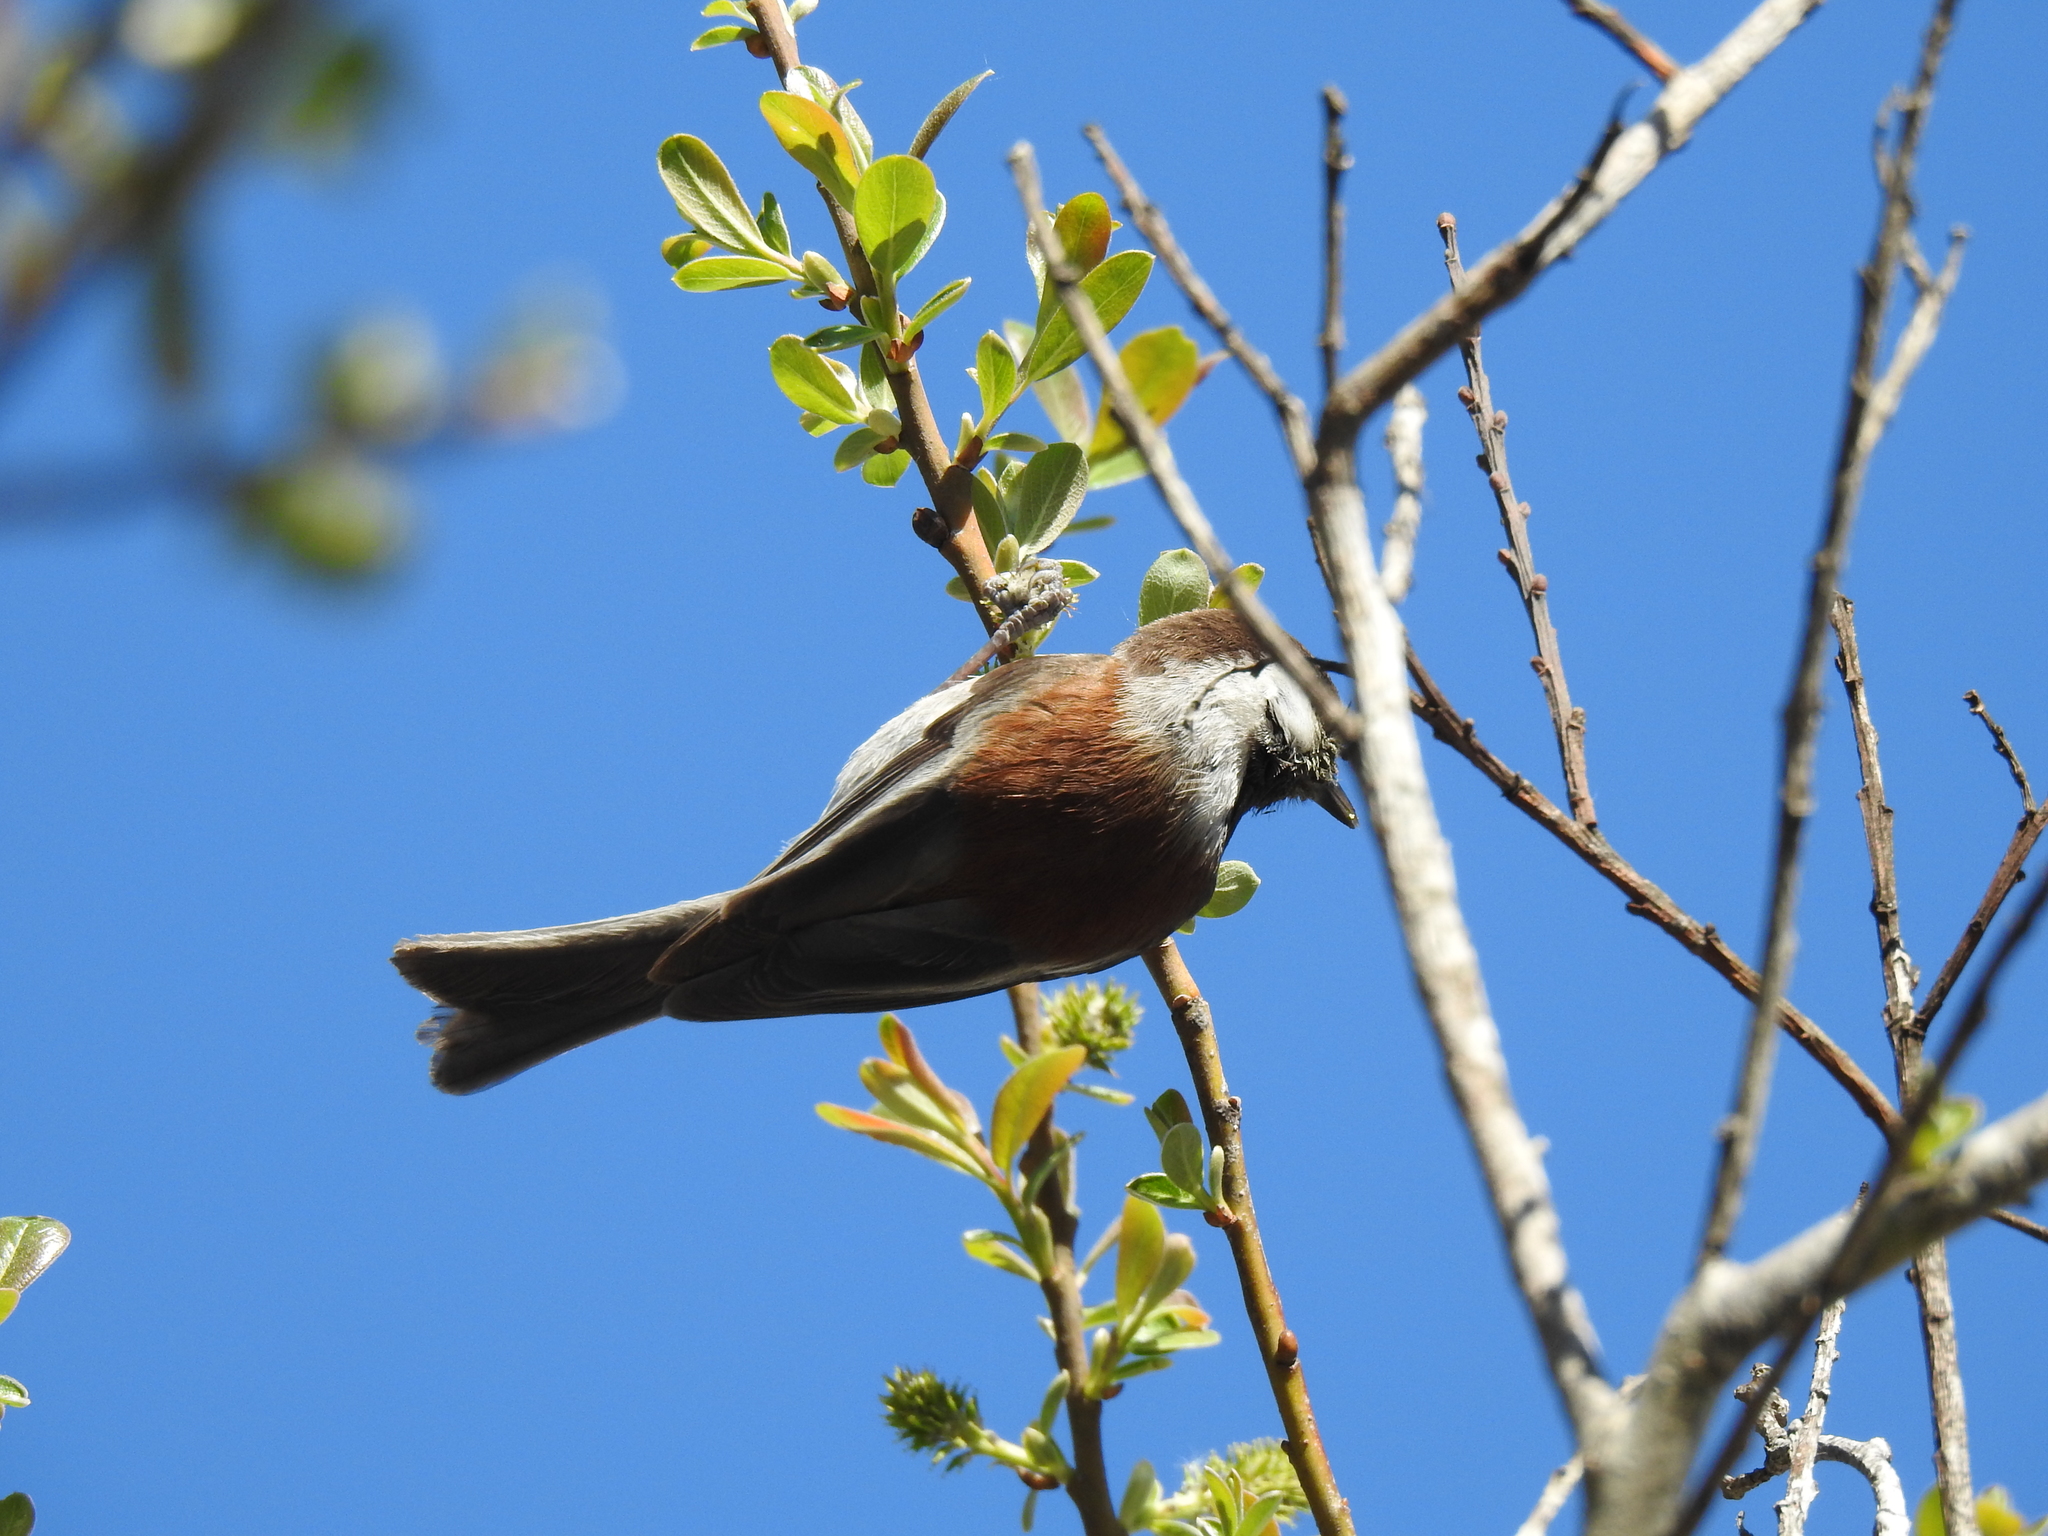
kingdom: Animalia
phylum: Chordata
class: Aves
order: Passeriformes
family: Paridae
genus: Poecile
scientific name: Poecile rufescens
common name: Chestnut-backed chickadee
